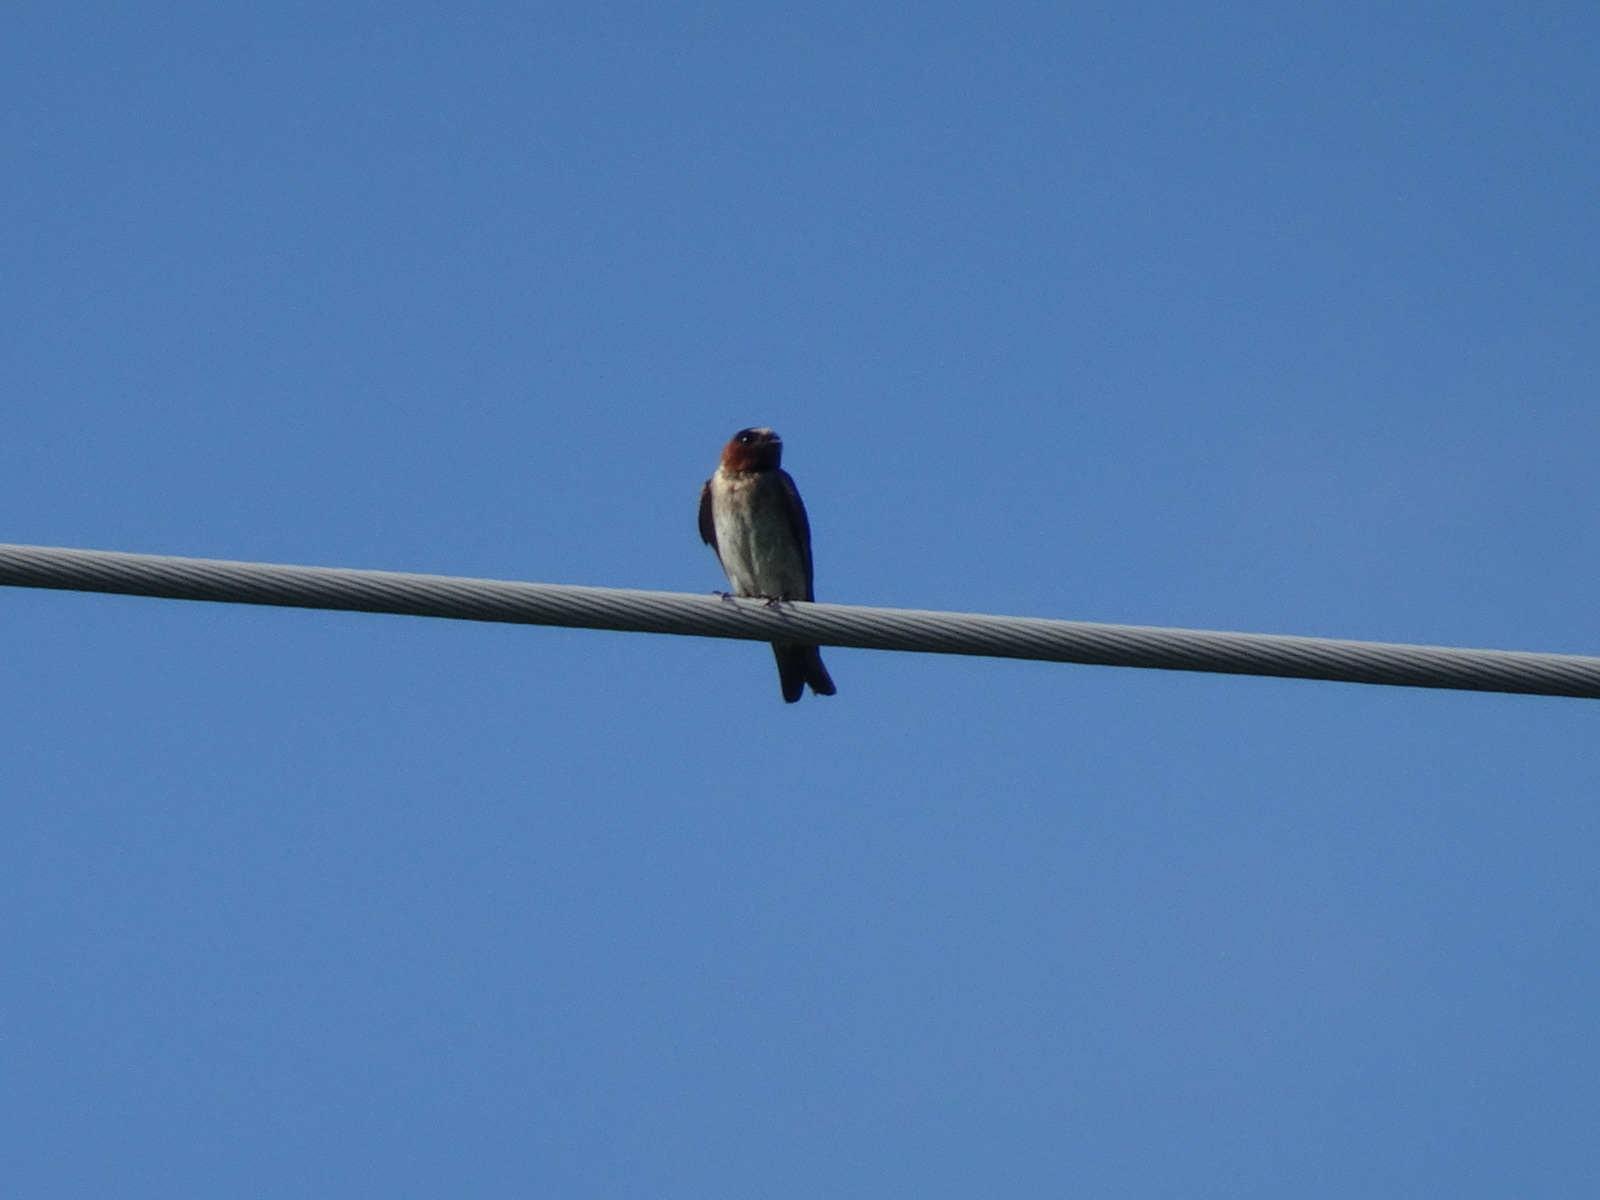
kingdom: Animalia
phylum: Chordata
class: Aves
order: Passeriformes
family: Hirundinidae
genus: Petrochelidon
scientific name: Petrochelidon pyrrhonota
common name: American cliff swallow
